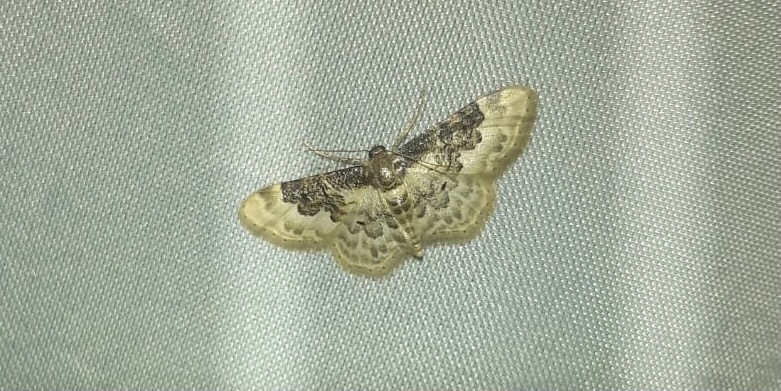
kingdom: Animalia
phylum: Arthropoda
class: Insecta
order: Lepidoptera
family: Geometridae
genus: Idaea
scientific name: Idaea rusticata
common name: Least carpet
